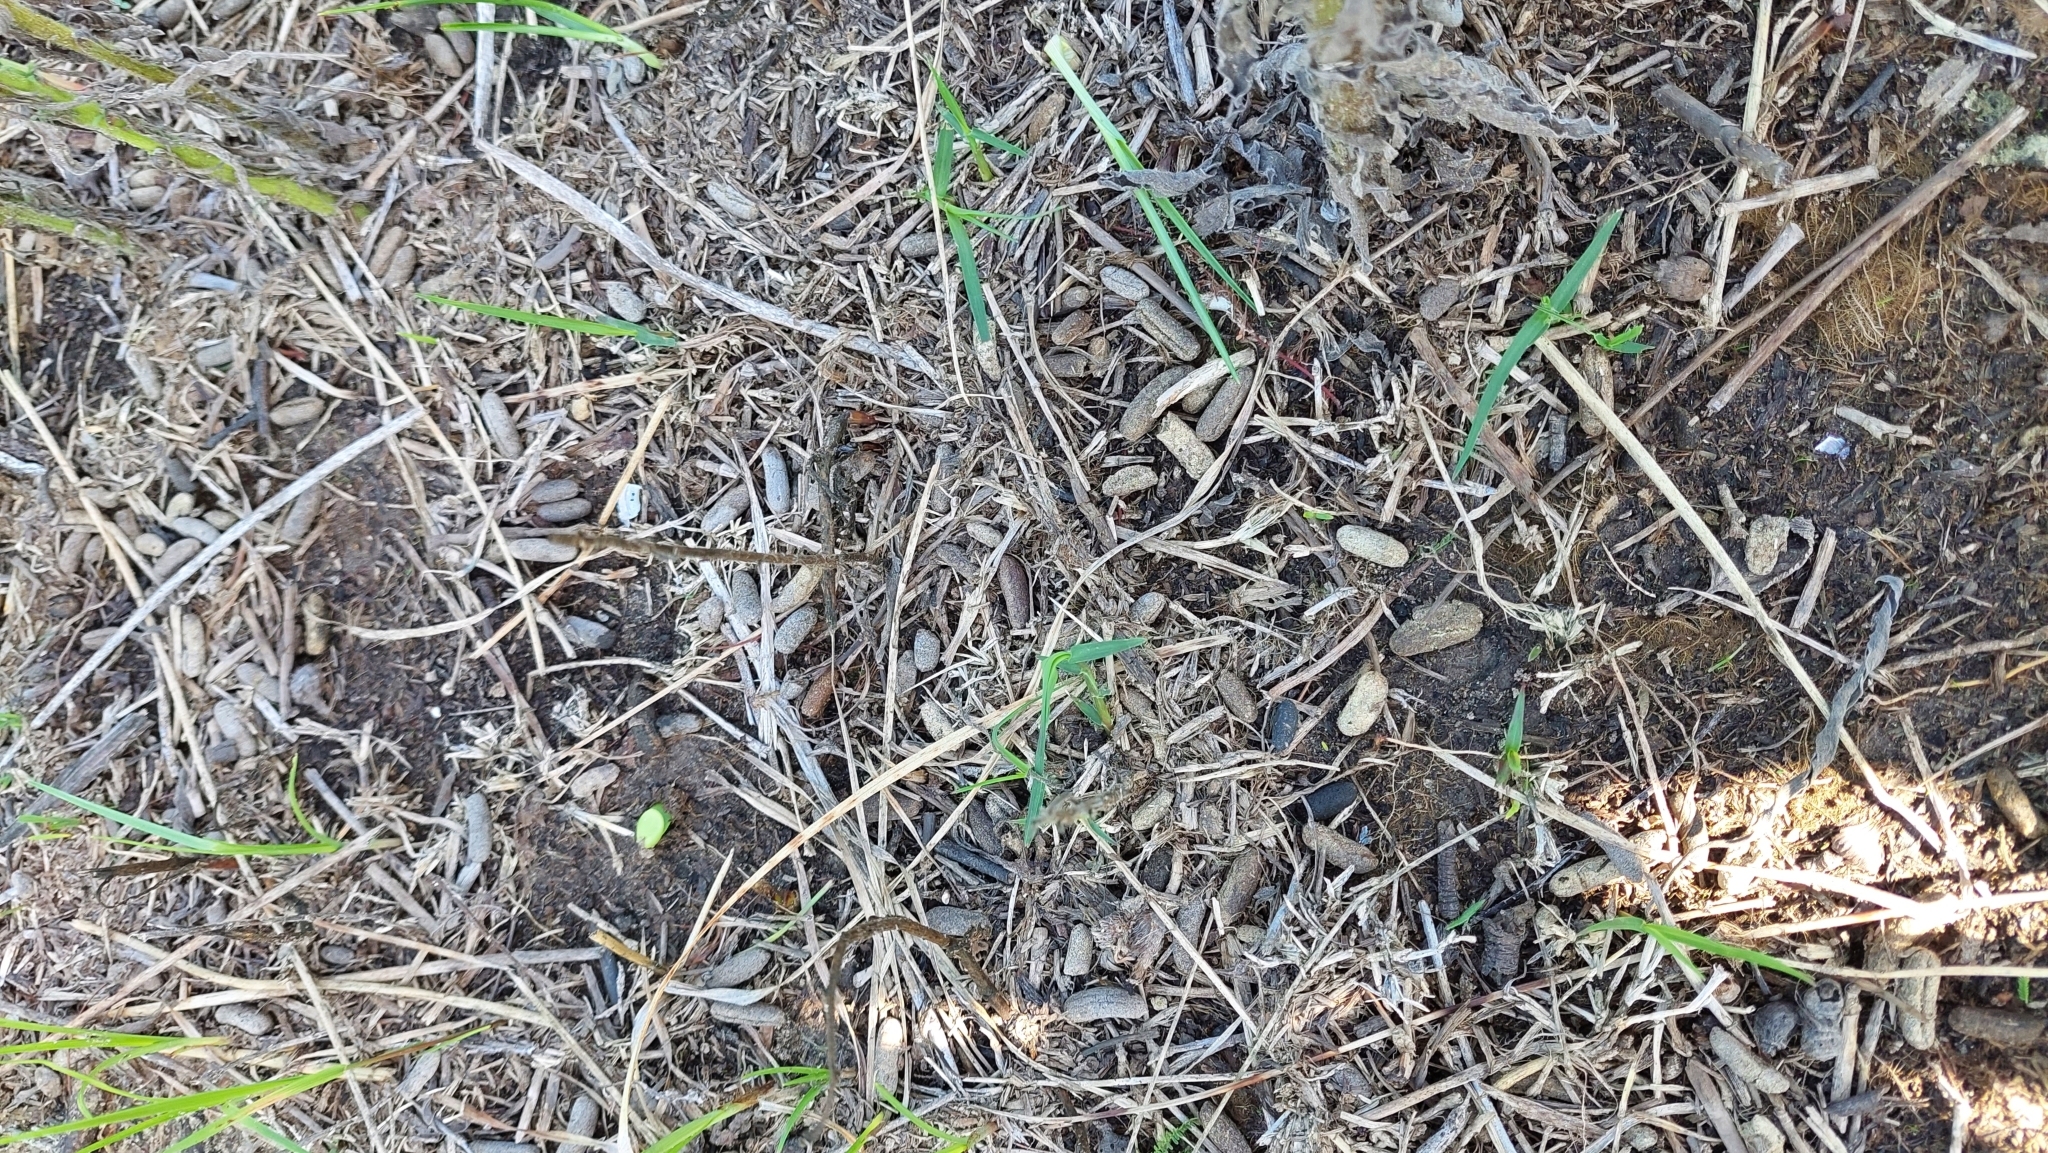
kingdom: Animalia
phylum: Chordata
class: Mammalia
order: Rodentia
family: Caviidae
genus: Cavia
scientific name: Cavia aperea
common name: Brazilian guinea pig
